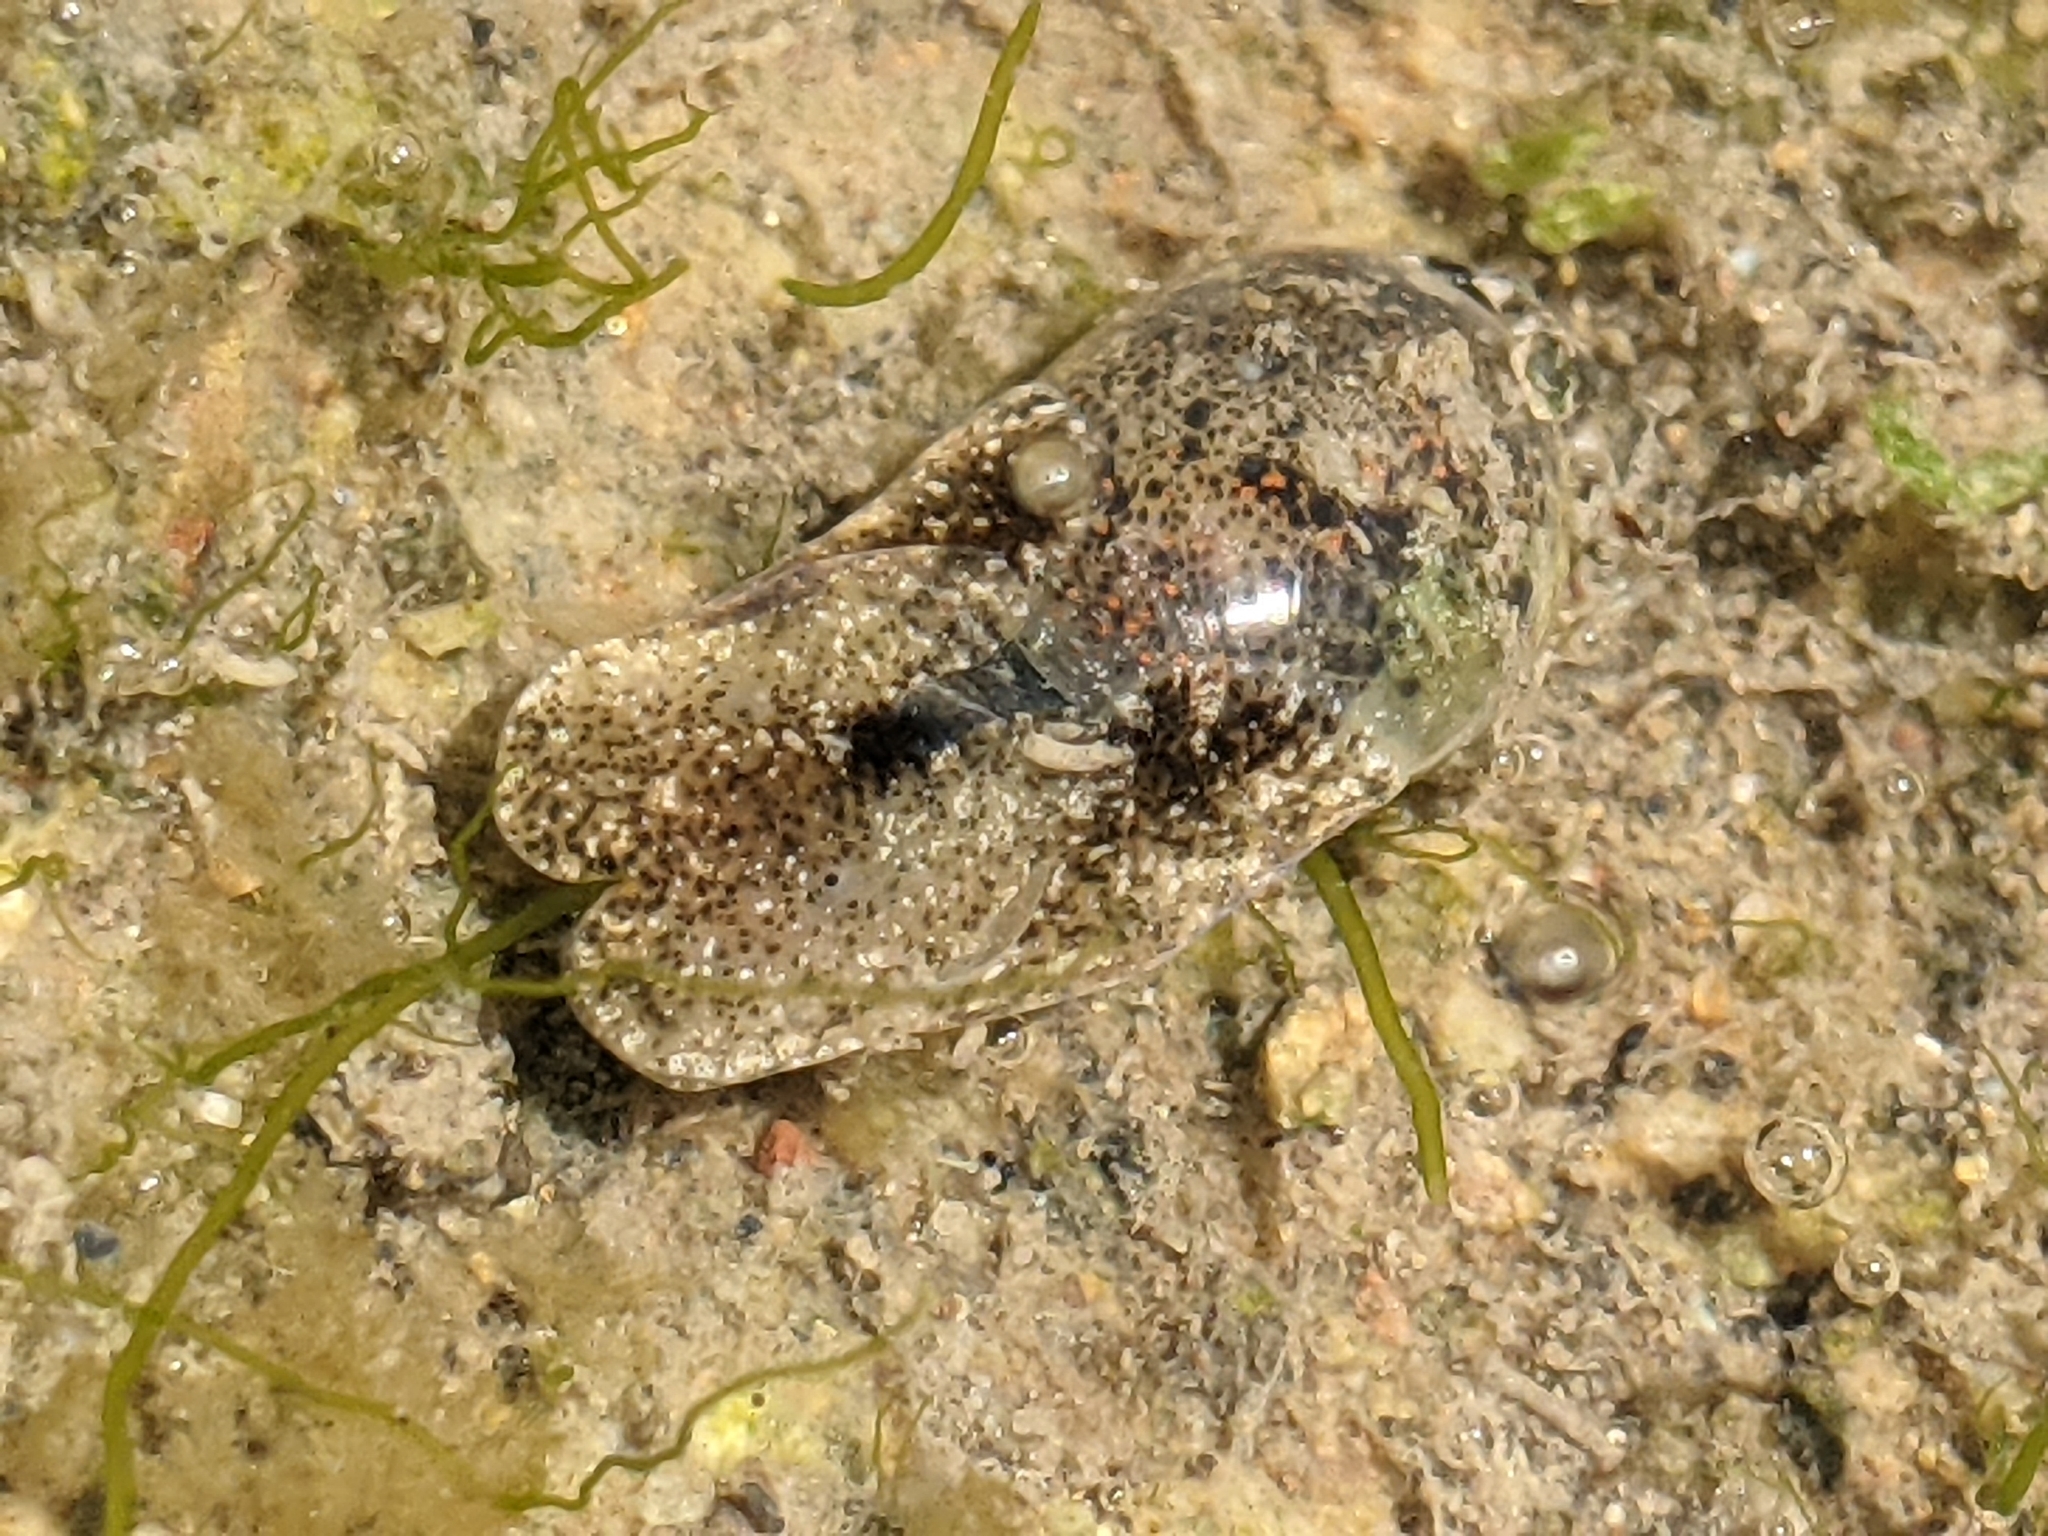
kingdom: Animalia
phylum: Mollusca
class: Gastropoda
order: Cephalaspidea
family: Haminoeidae
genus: Haloa
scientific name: Haloa japonica
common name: Japanese bubble snail
